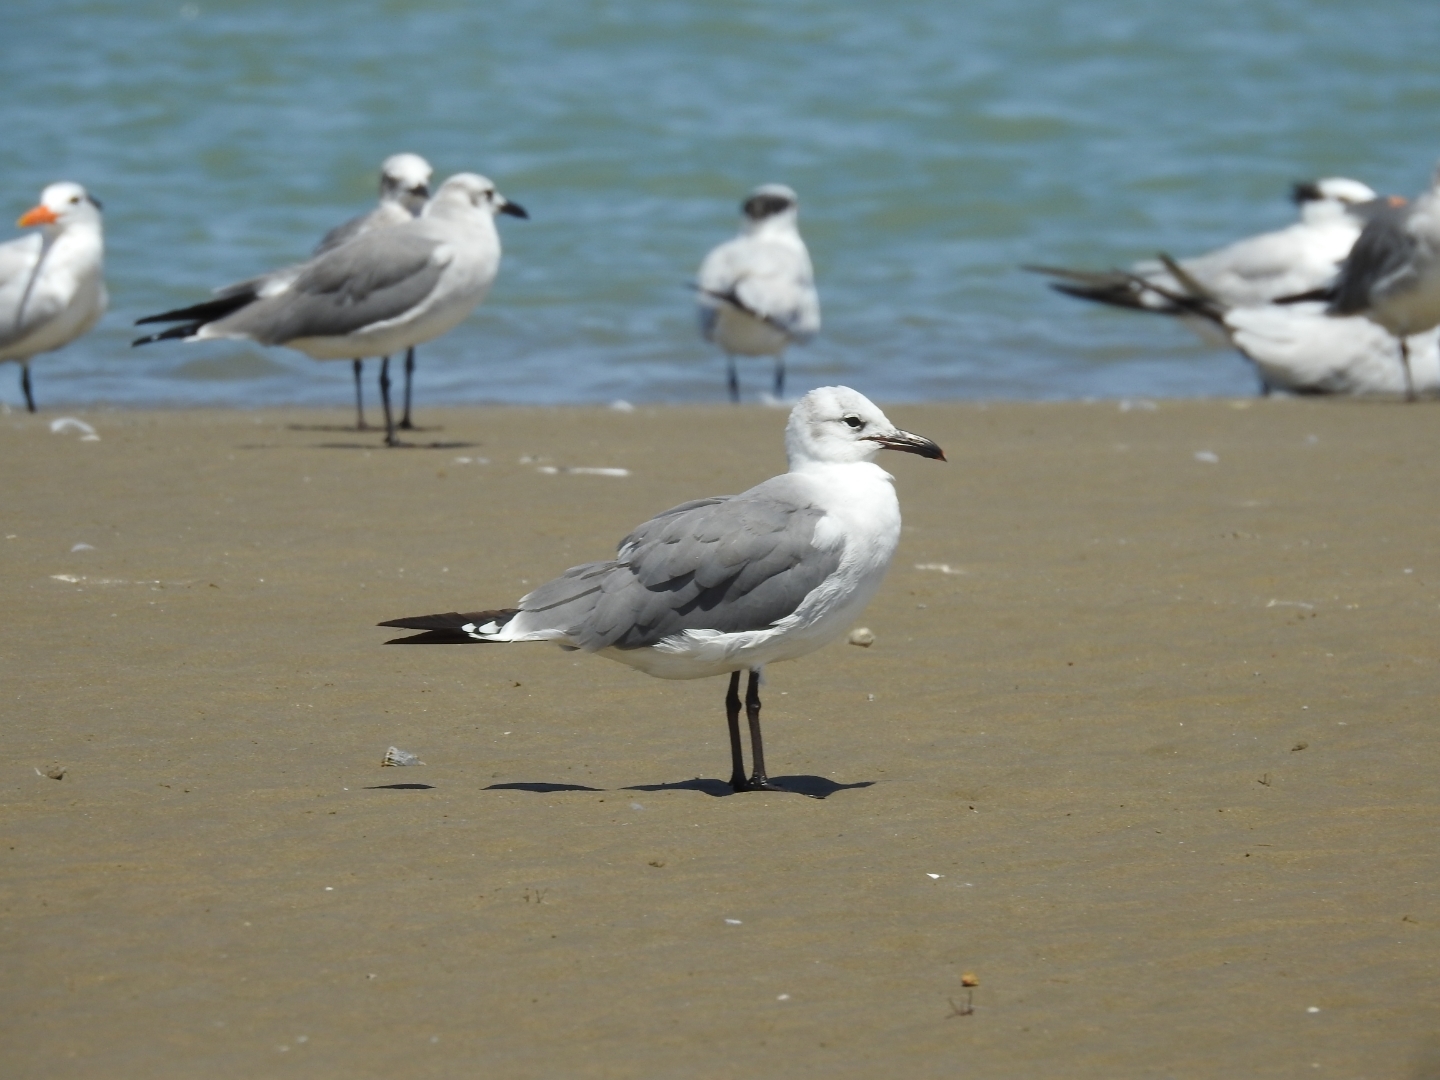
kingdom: Animalia
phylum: Chordata
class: Aves
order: Charadriiformes
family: Laridae
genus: Leucophaeus
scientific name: Leucophaeus atricilla
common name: Laughing gull
